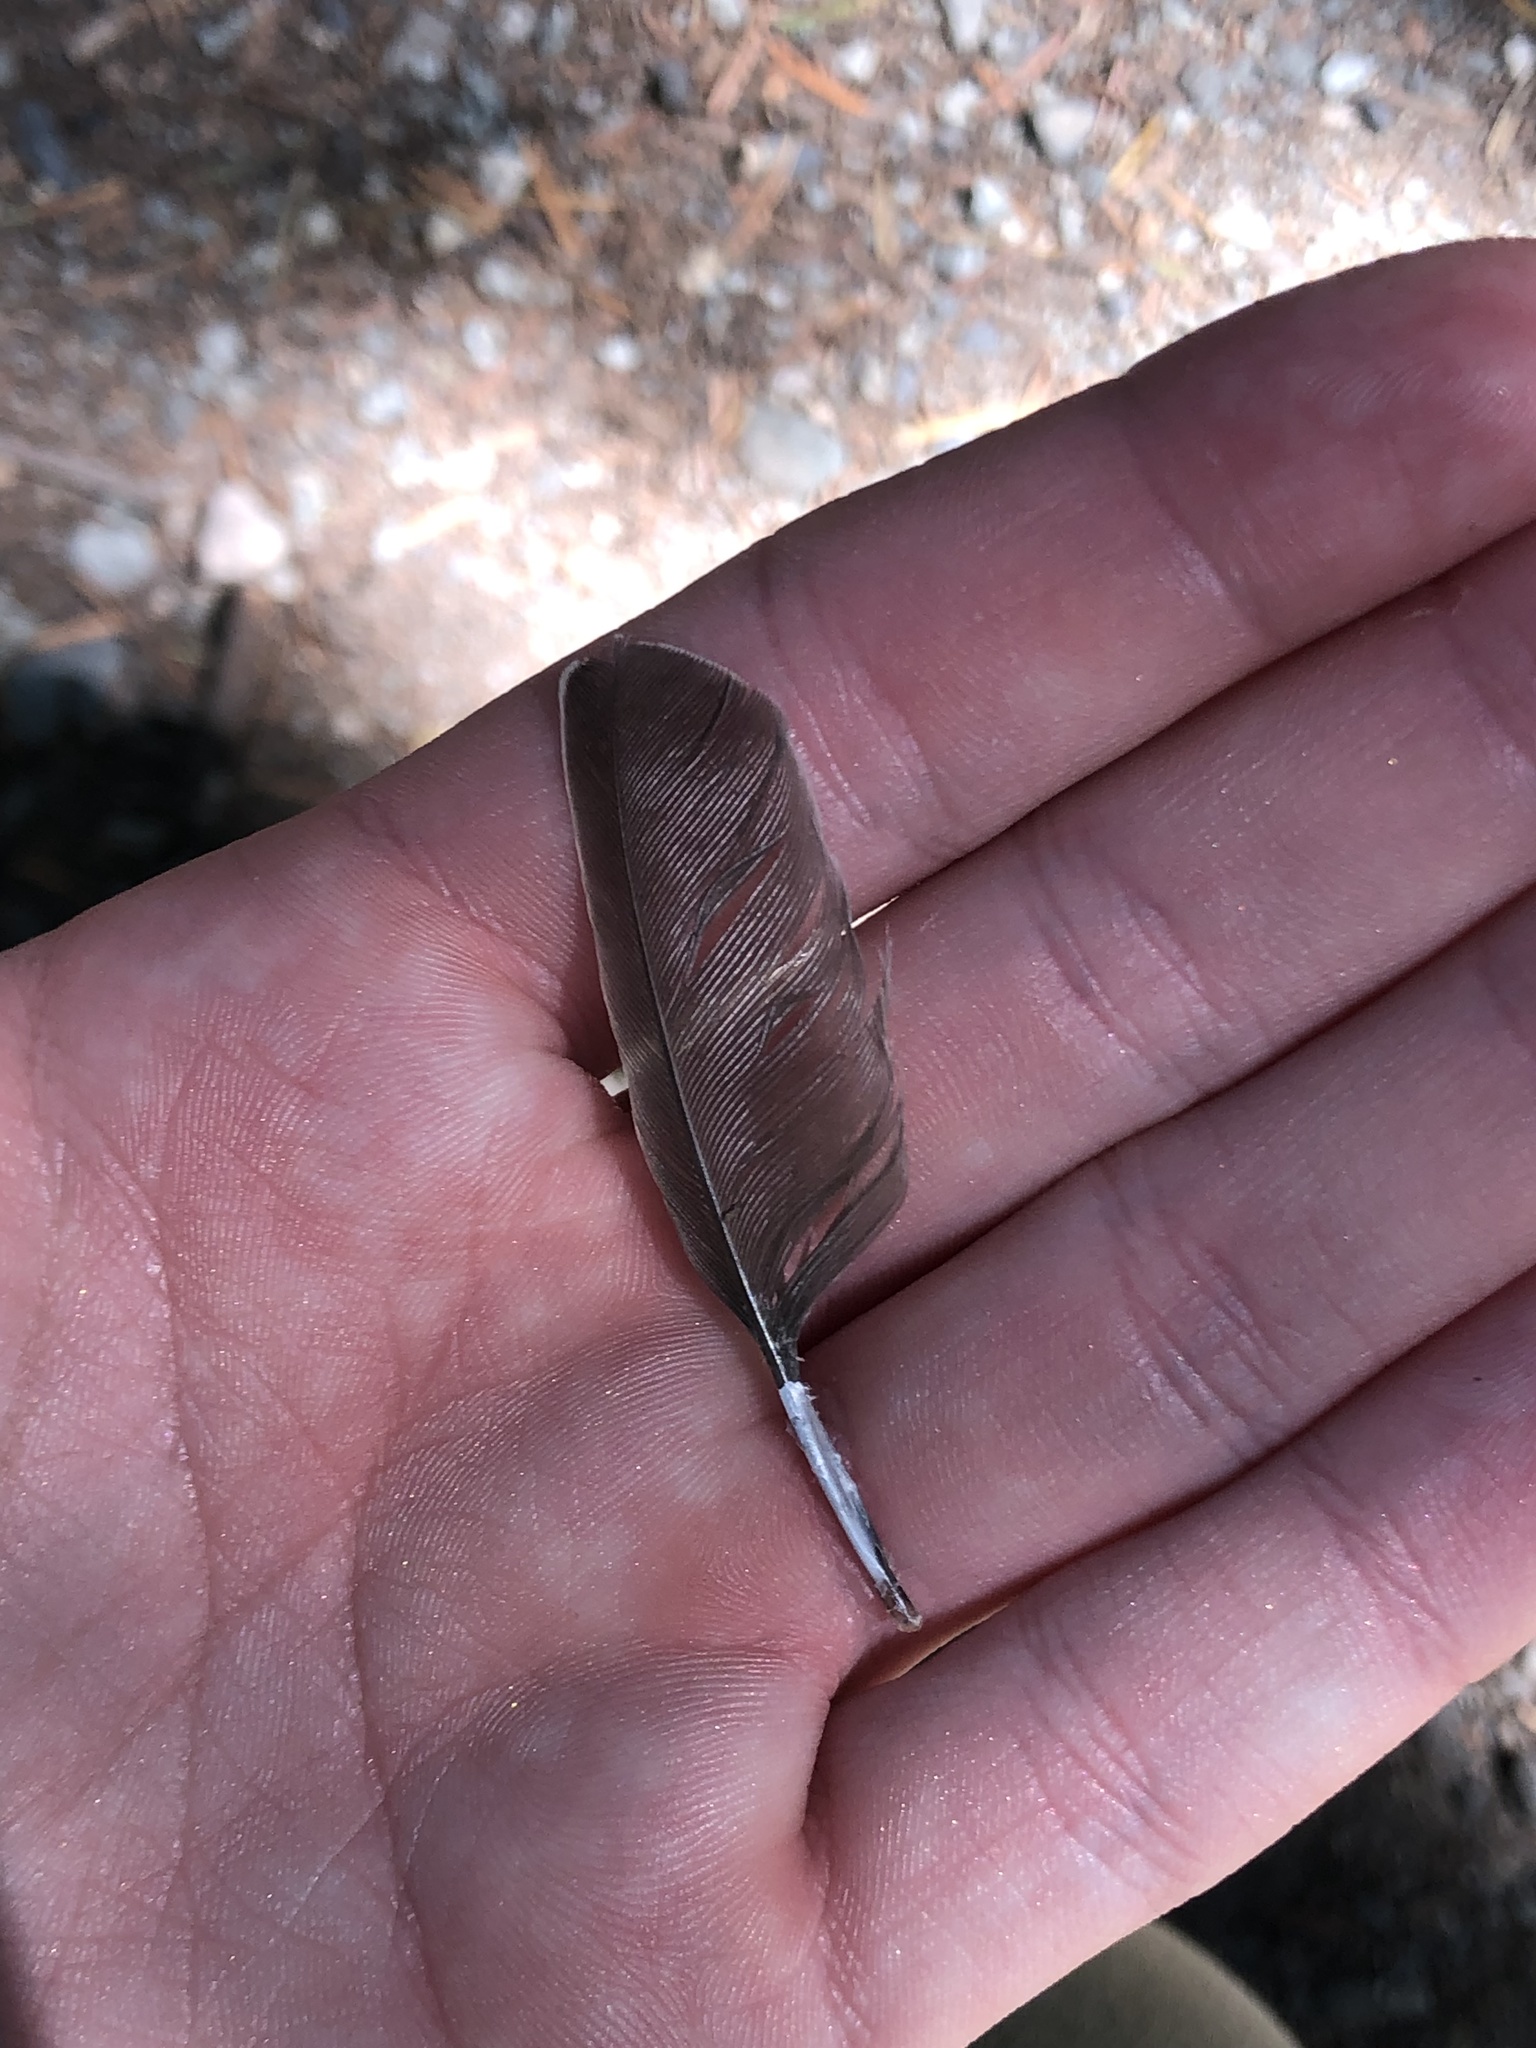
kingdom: Animalia
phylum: Chordata
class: Aves
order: Passeriformes
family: Sturnidae
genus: Sturnus
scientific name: Sturnus vulgaris
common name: Common starling
